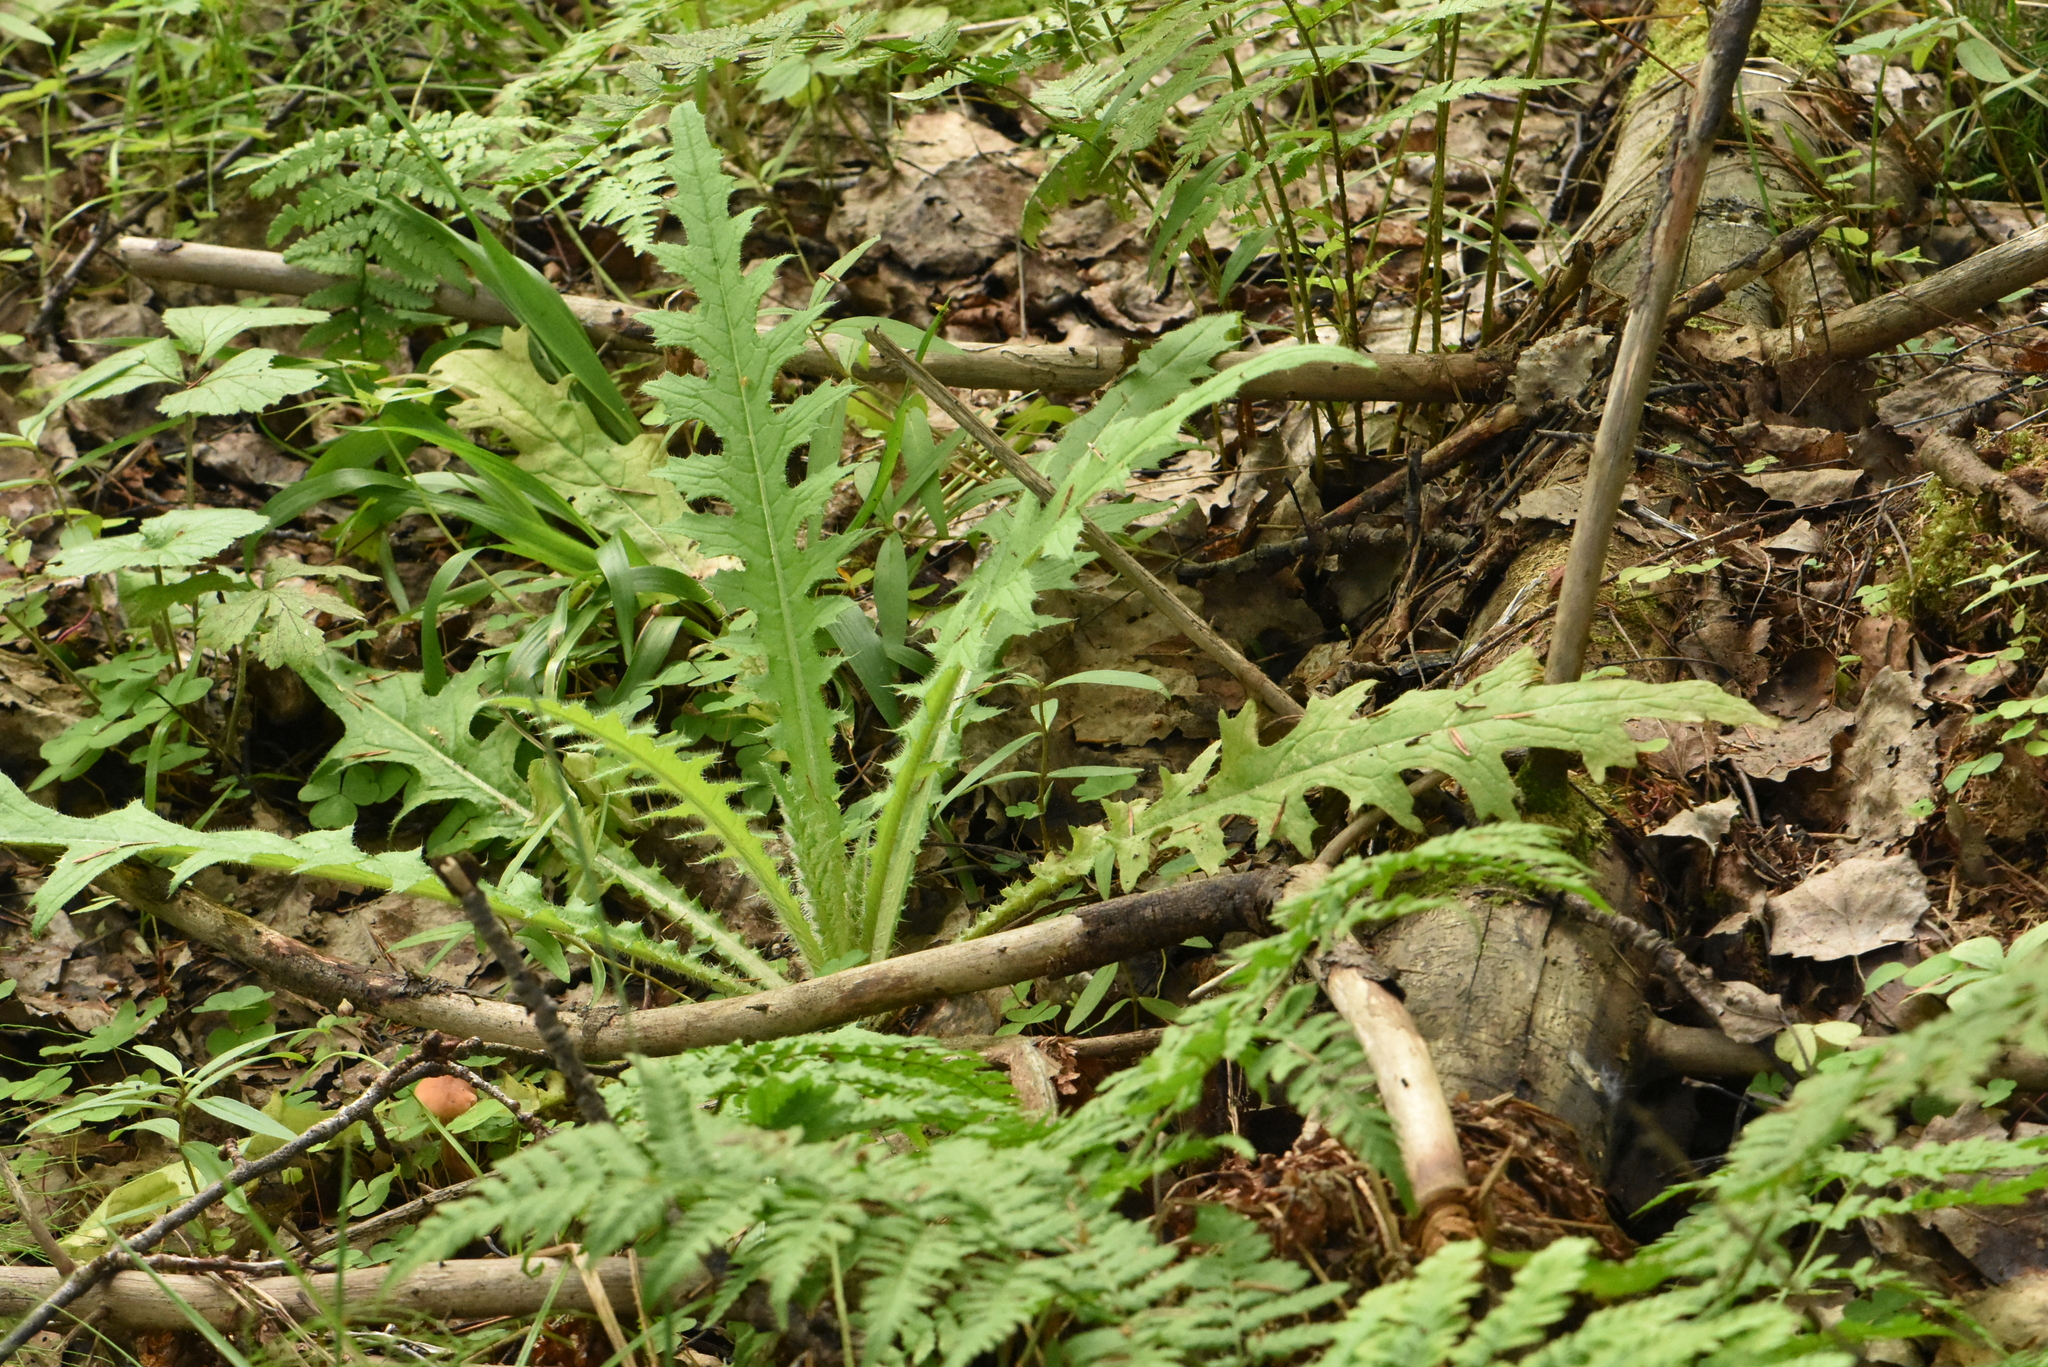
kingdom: Plantae
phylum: Tracheophyta
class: Magnoliopsida
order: Asterales
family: Asteraceae
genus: Cirsium
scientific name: Cirsium palustre
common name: Marsh thistle
